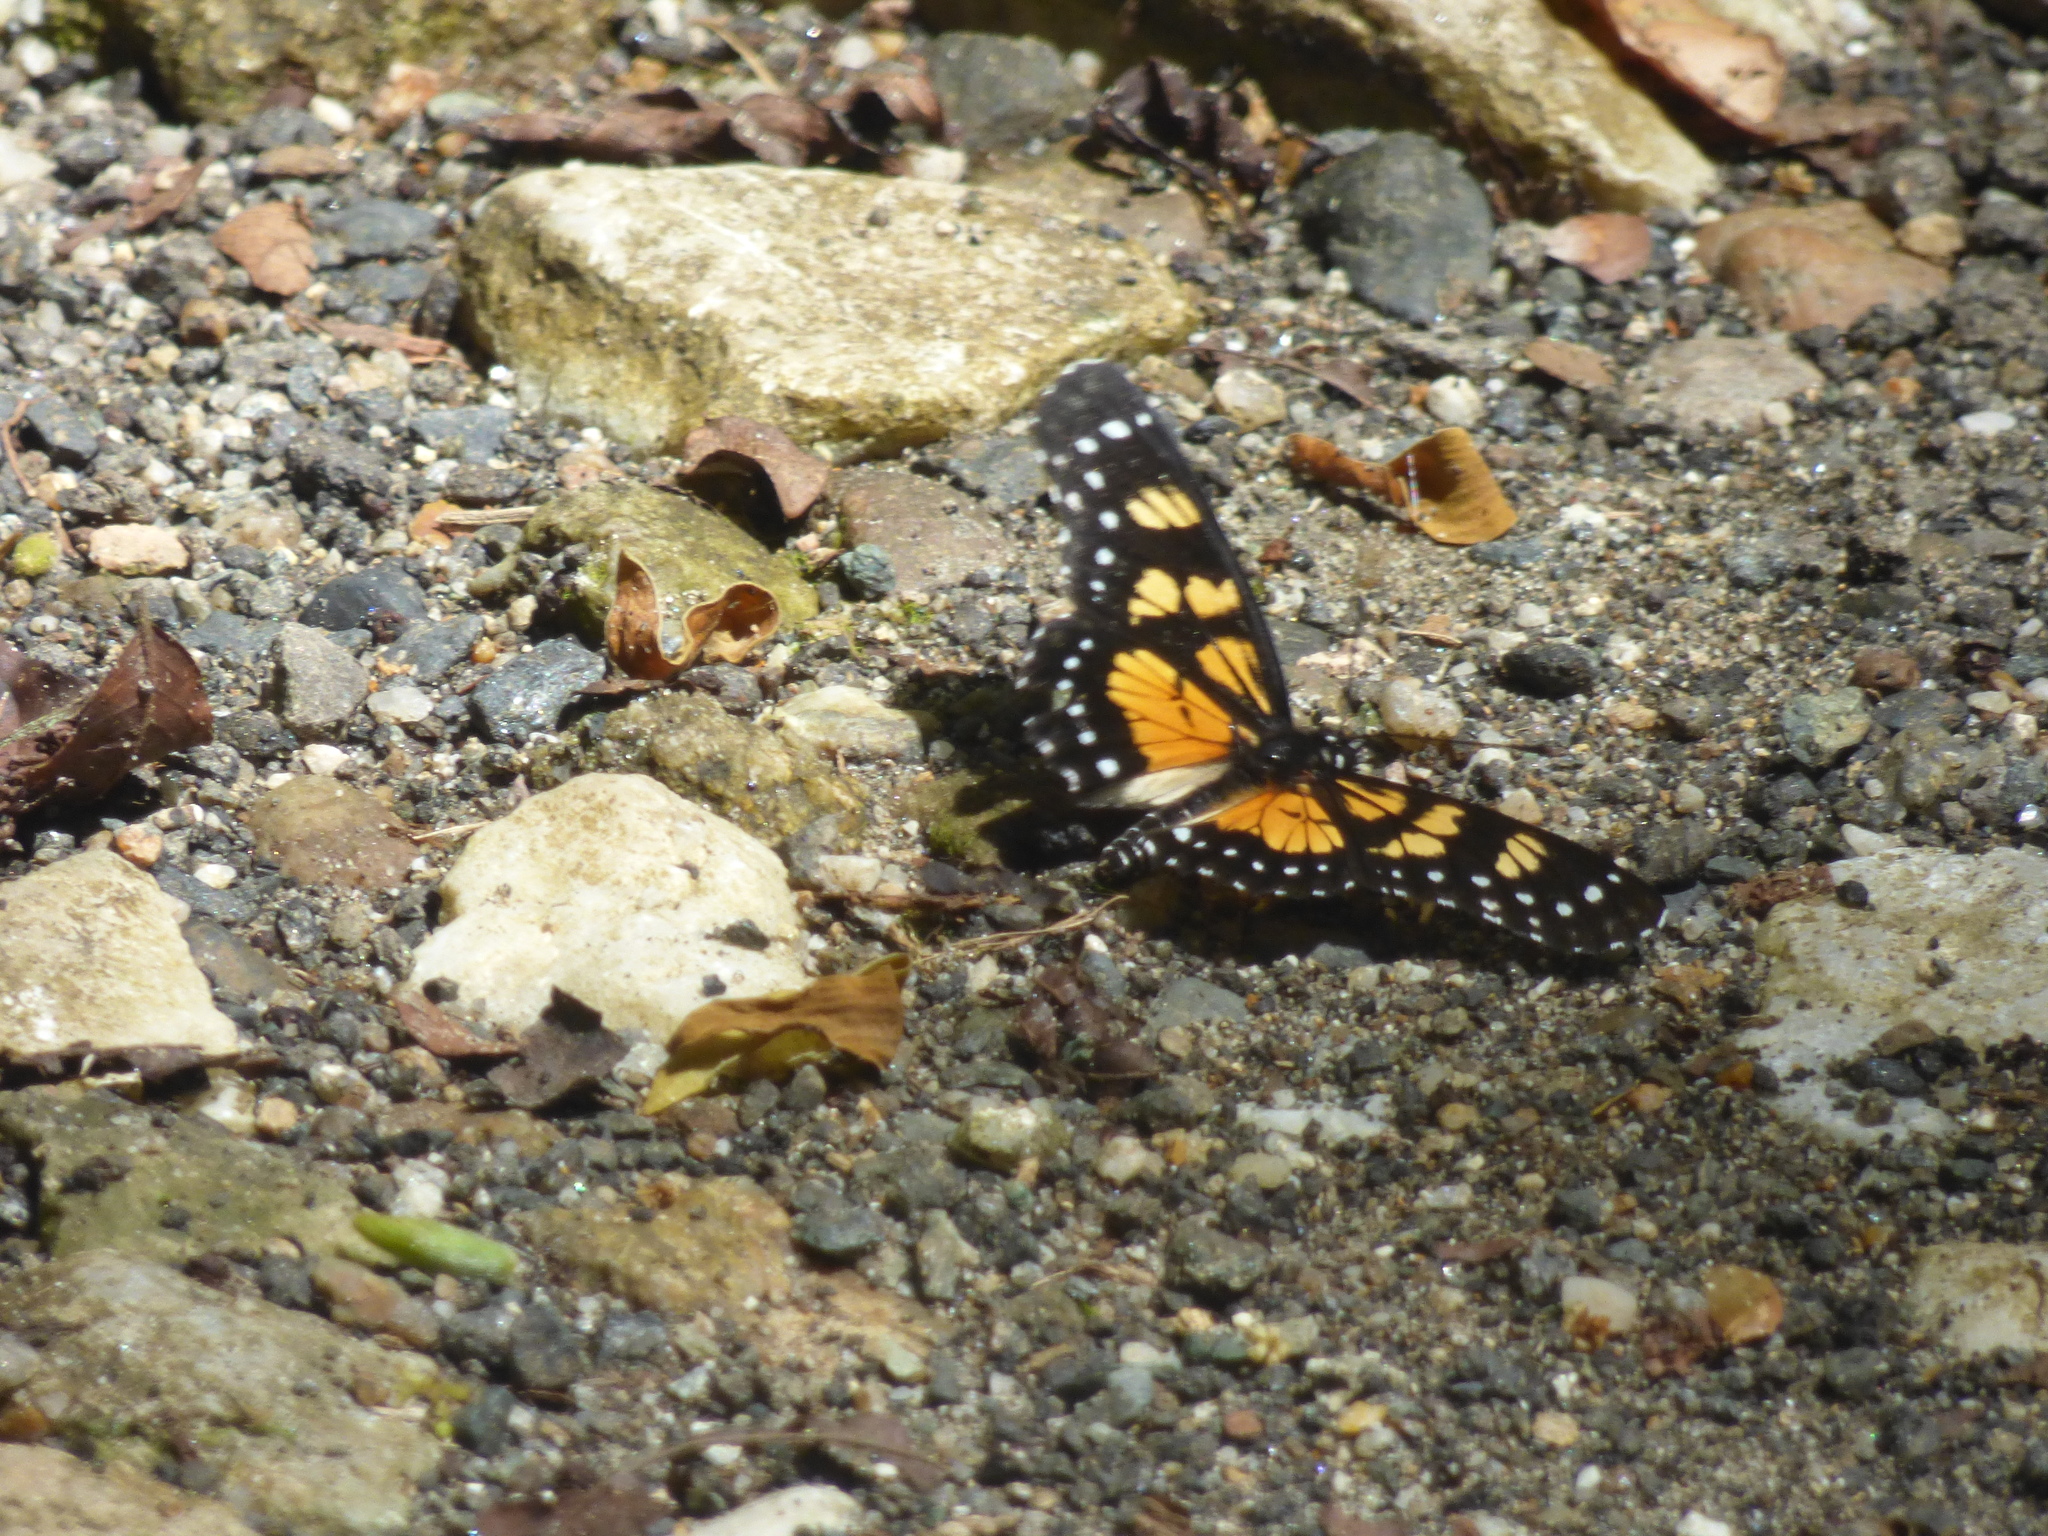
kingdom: Animalia
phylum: Arthropoda
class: Insecta
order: Lepidoptera
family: Nymphalidae
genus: Chlosyne
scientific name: Chlosyne narva
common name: Narva checkerspot
